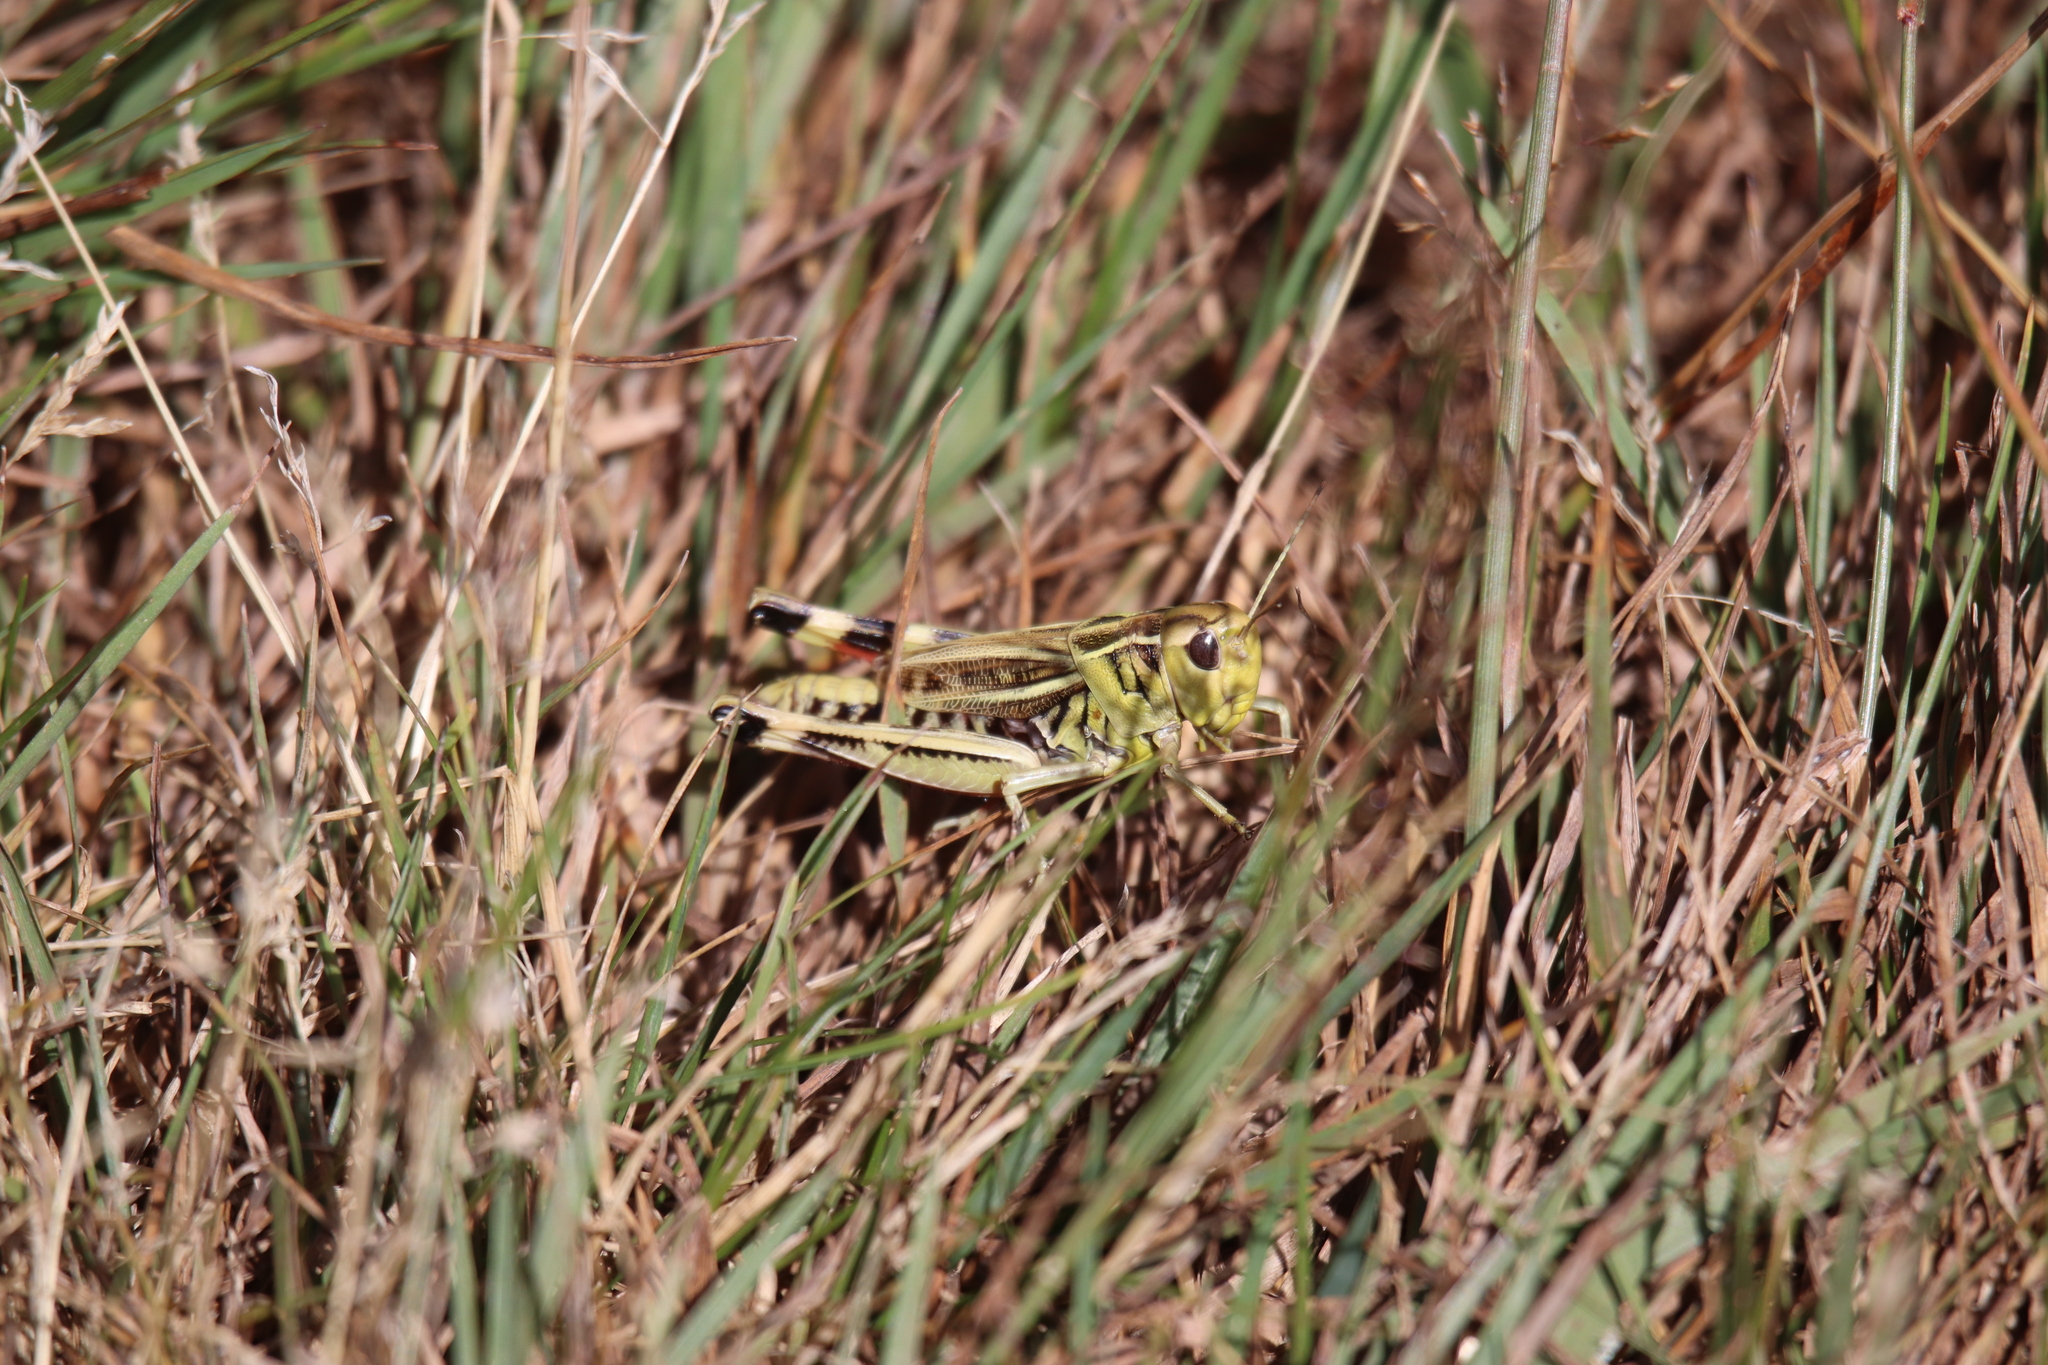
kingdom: Animalia
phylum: Arthropoda
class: Insecta
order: Orthoptera
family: Acrididae
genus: Arcyptera
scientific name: Arcyptera fusca
